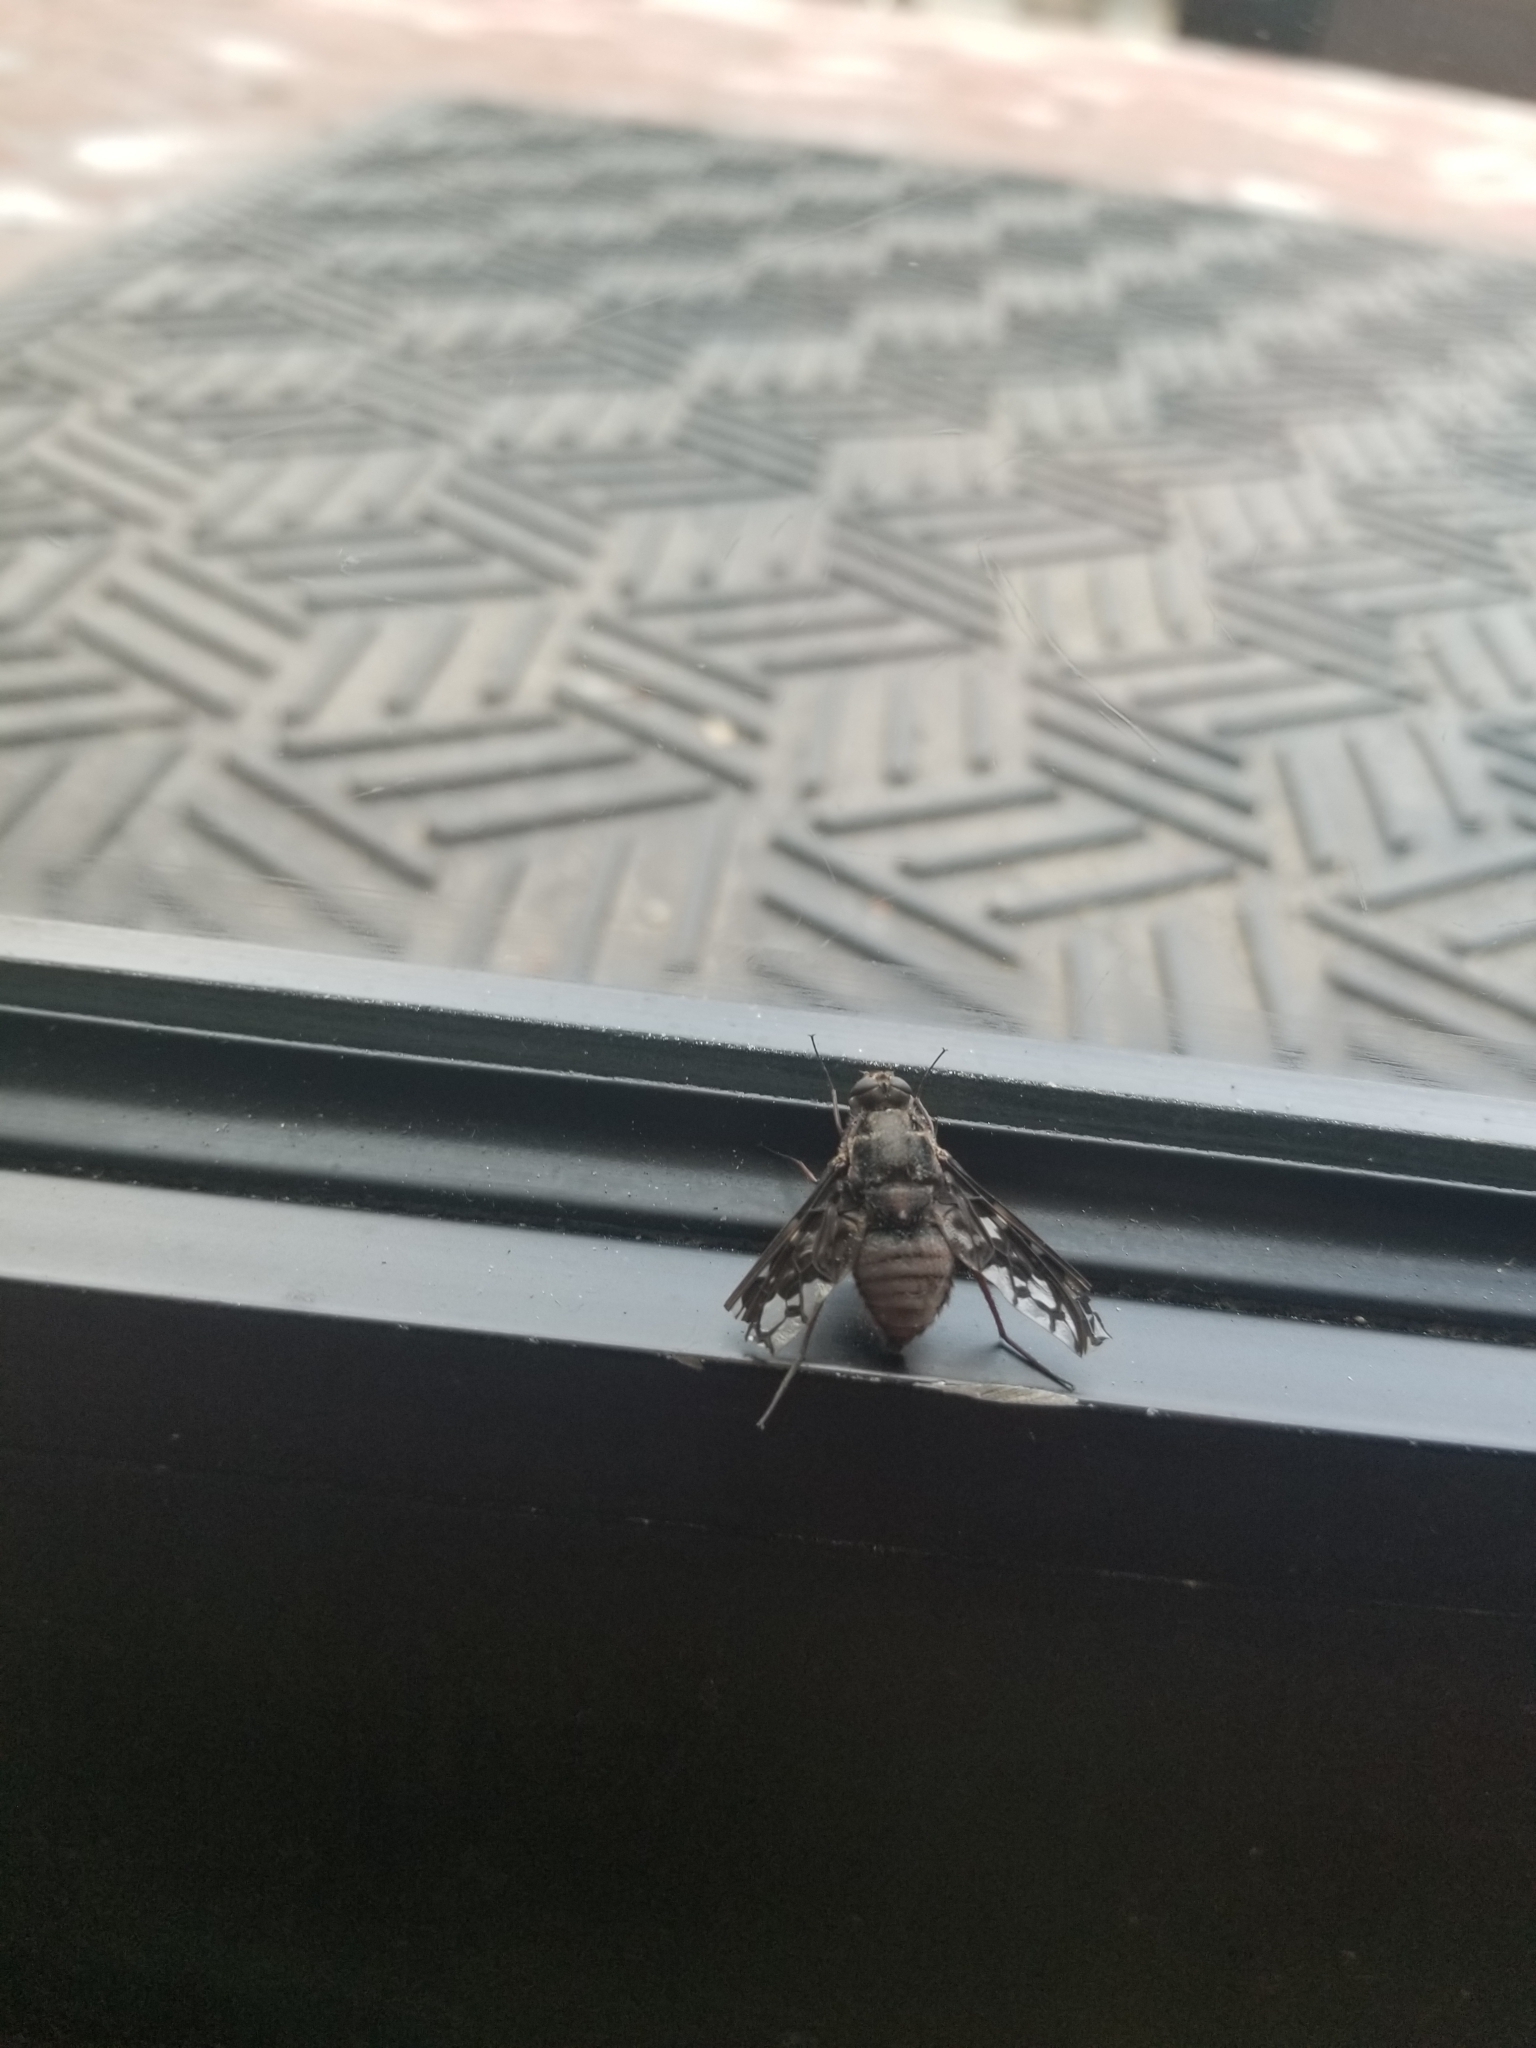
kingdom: Animalia
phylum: Arthropoda
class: Insecta
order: Diptera
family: Bombyliidae
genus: Xenox
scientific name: Xenox tigrinus
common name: Tiger bee fly
